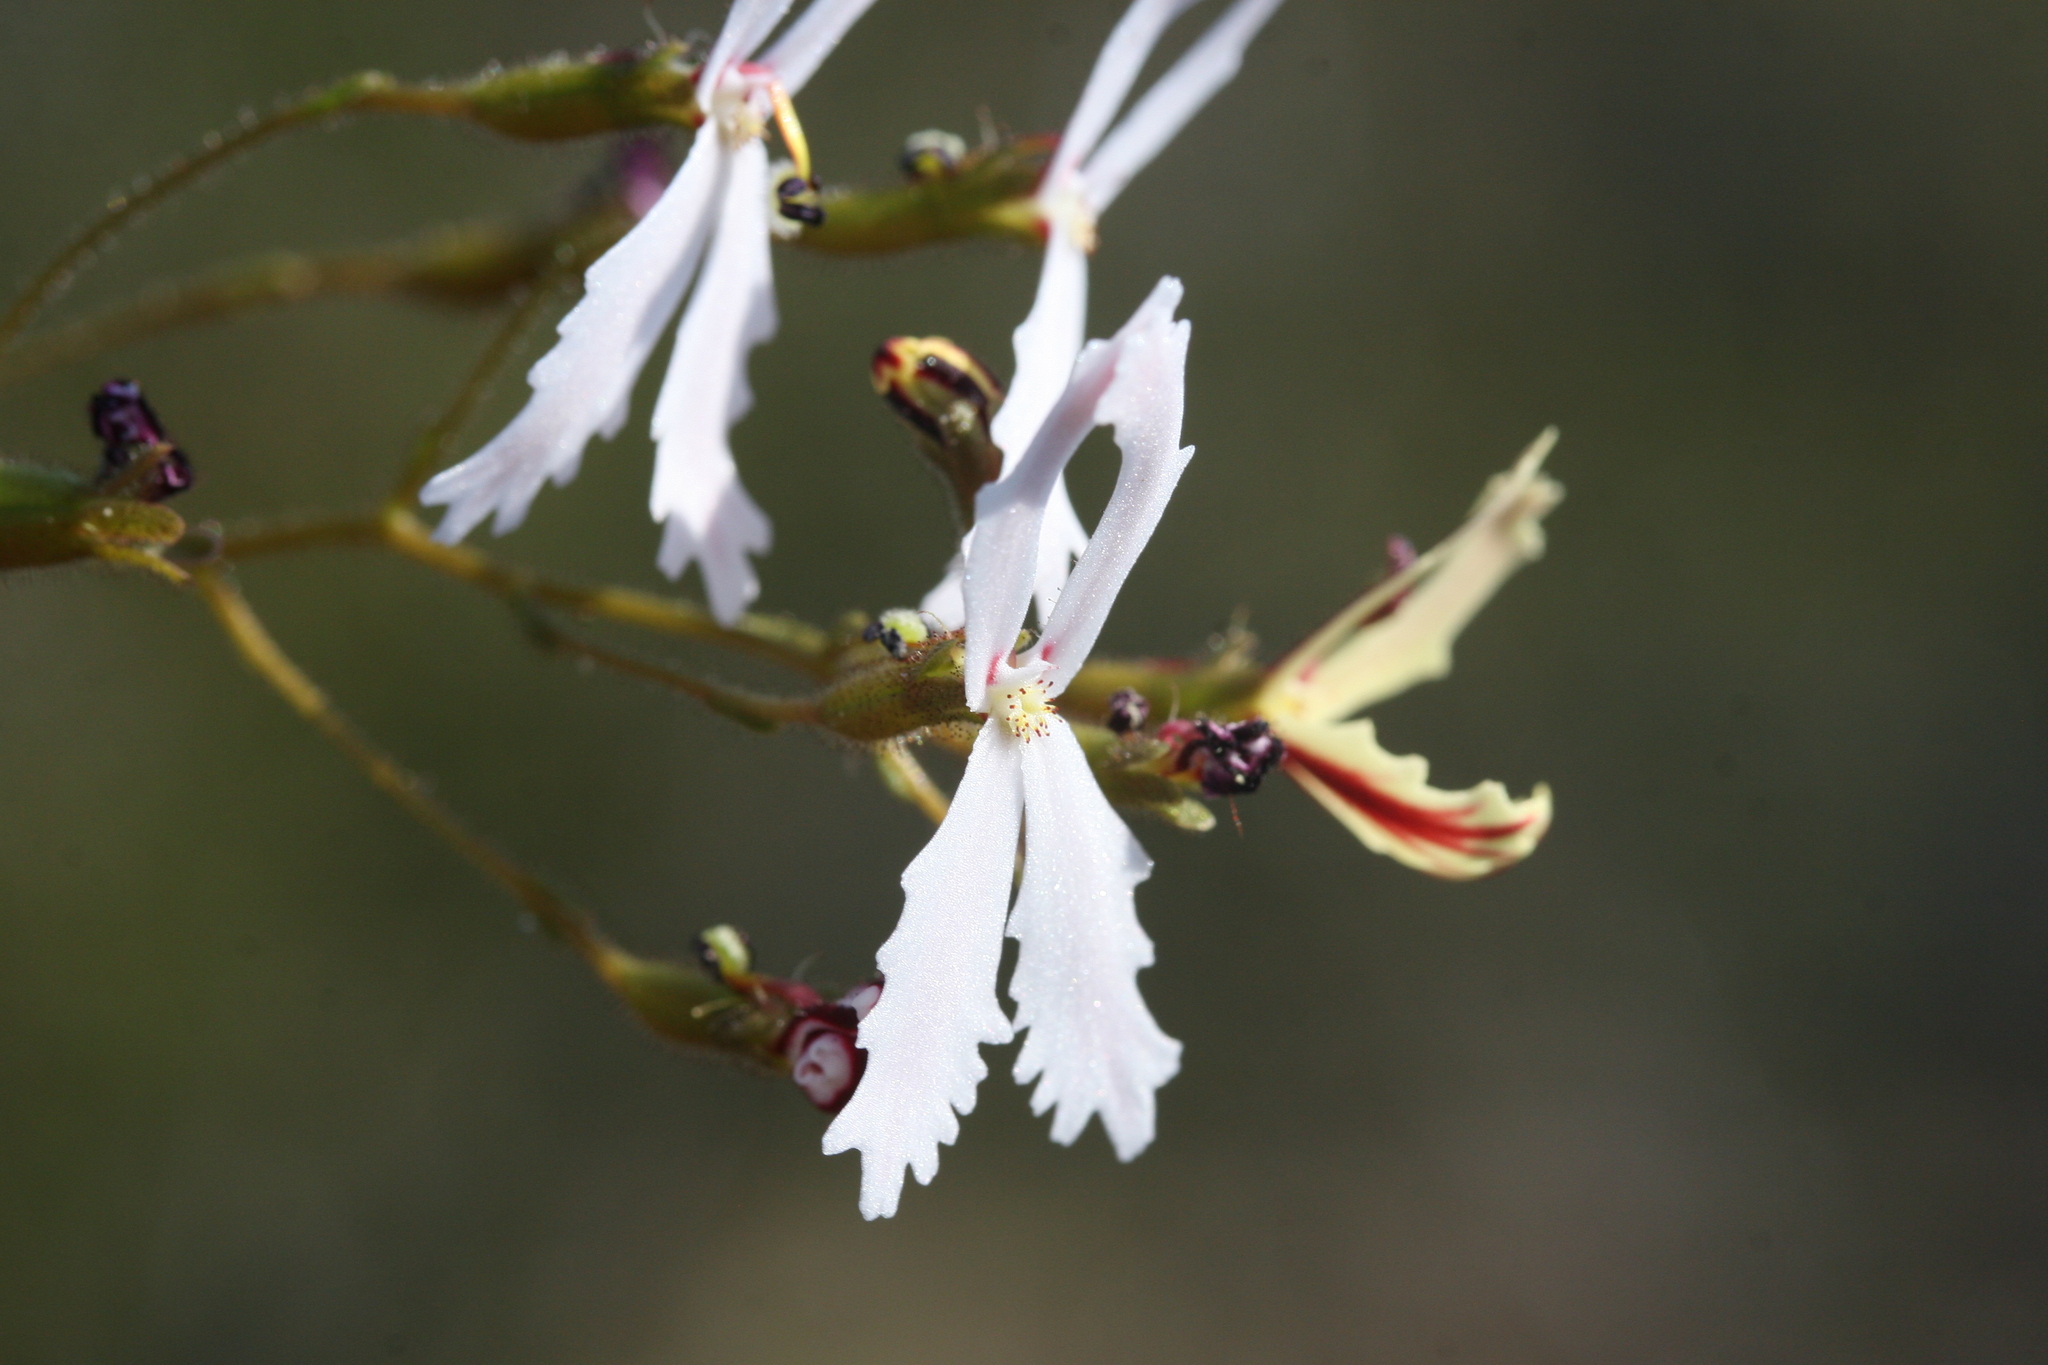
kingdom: Plantae
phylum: Tracheophyta
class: Magnoliopsida
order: Asterales
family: Stylidiaceae
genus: Stylidium
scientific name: Stylidium spinulosum
